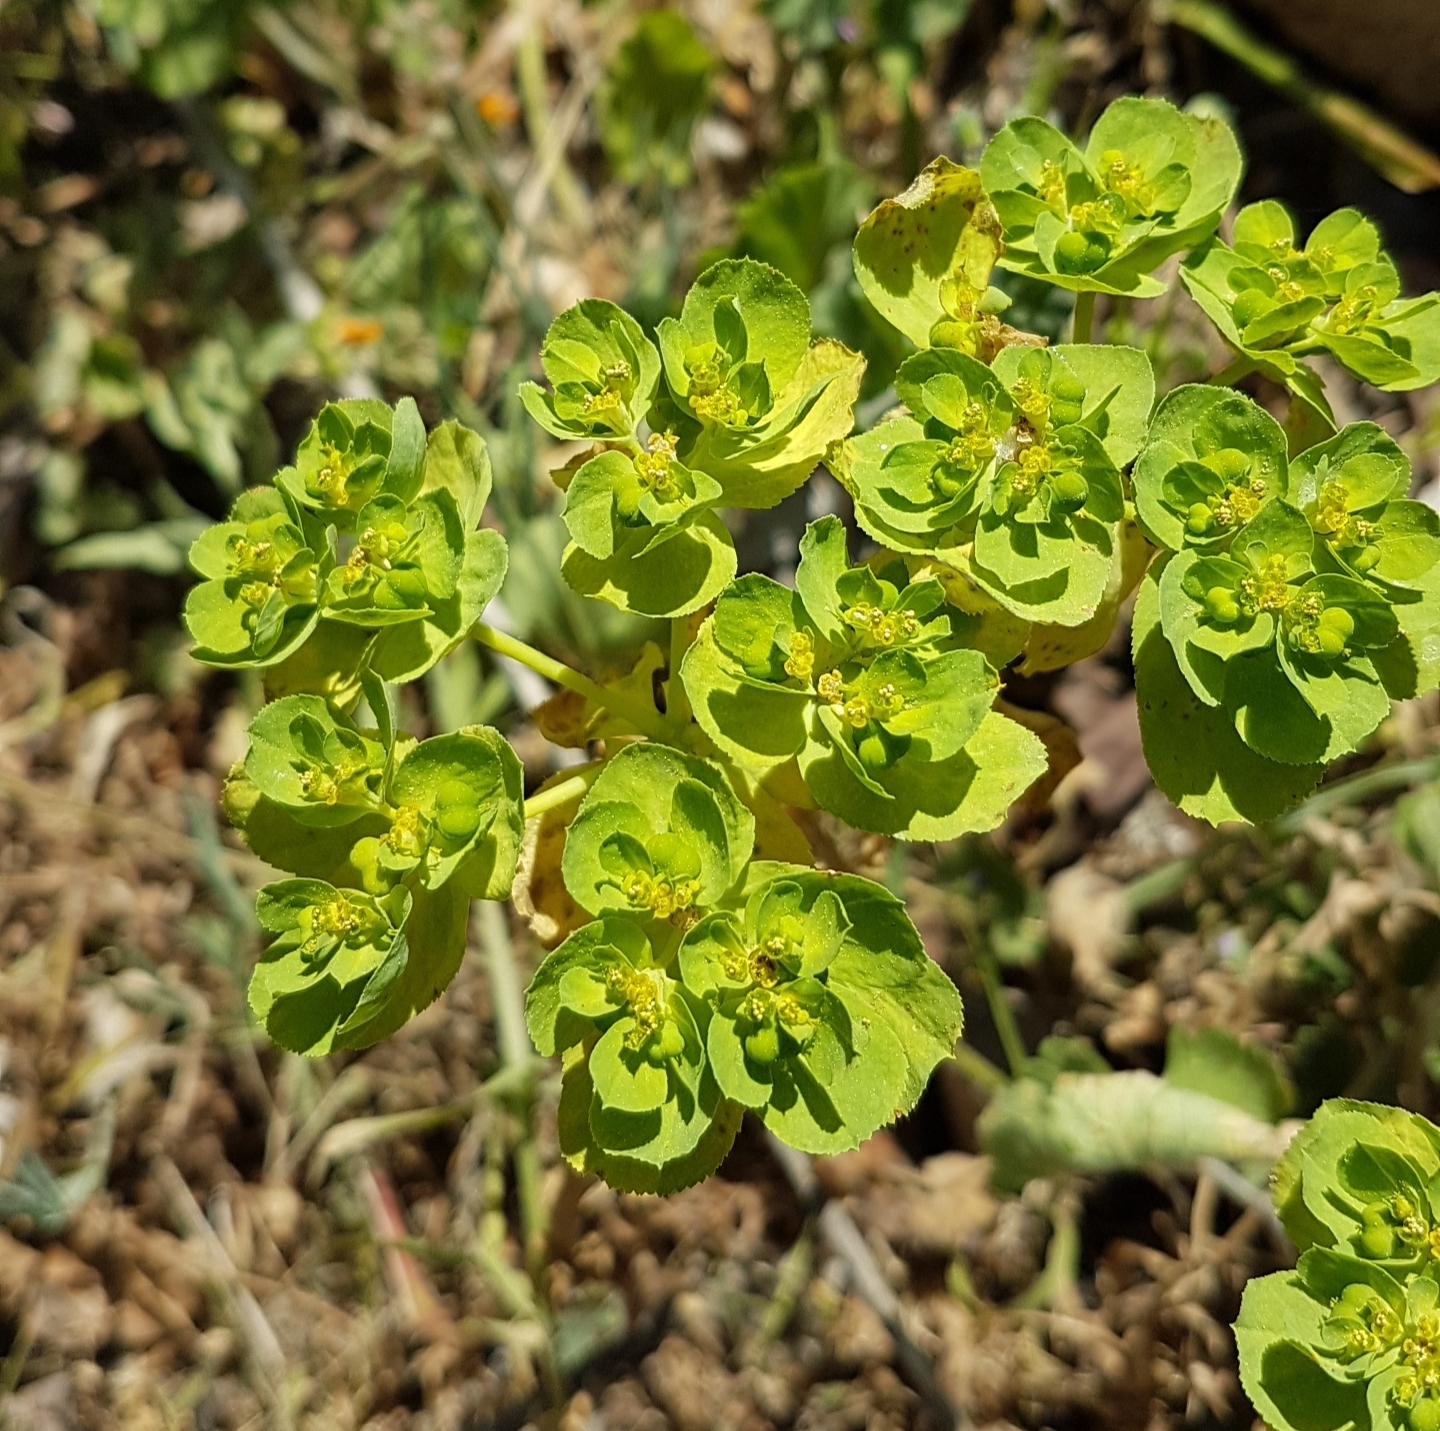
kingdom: Plantae
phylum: Tracheophyta
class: Magnoliopsida
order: Malpighiales
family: Euphorbiaceae
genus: Euphorbia
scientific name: Euphorbia helioscopia
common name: Sun spurge
